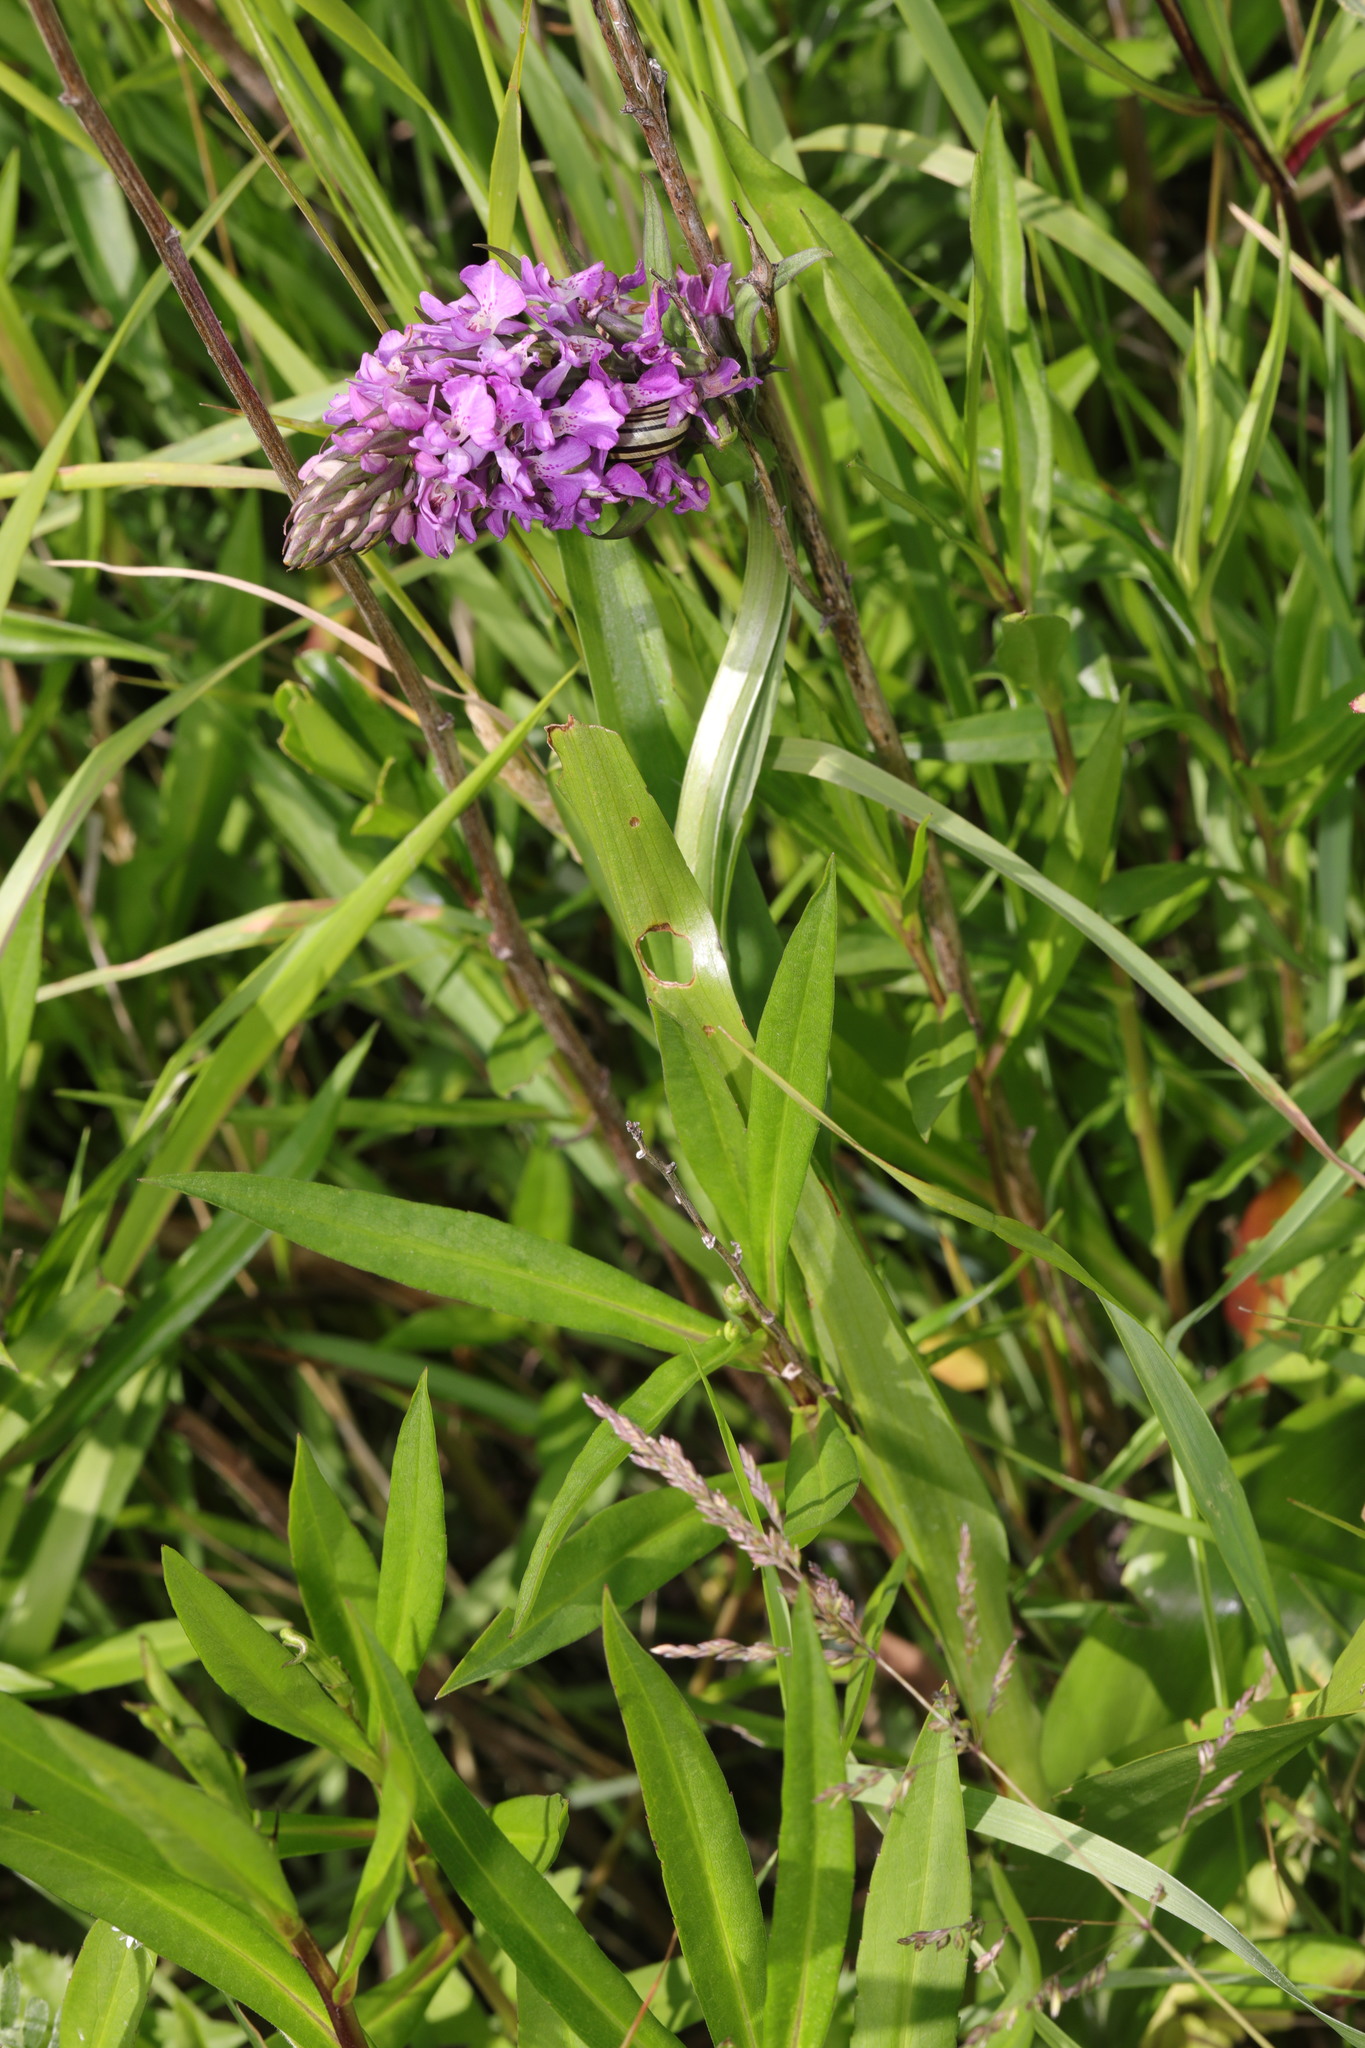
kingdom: Plantae
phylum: Tracheophyta
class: Liliopsida
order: Asparagales
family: Orchidaceae
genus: Dactylorhiza
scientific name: Dactylorhiza majalis
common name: Marsh orchid
